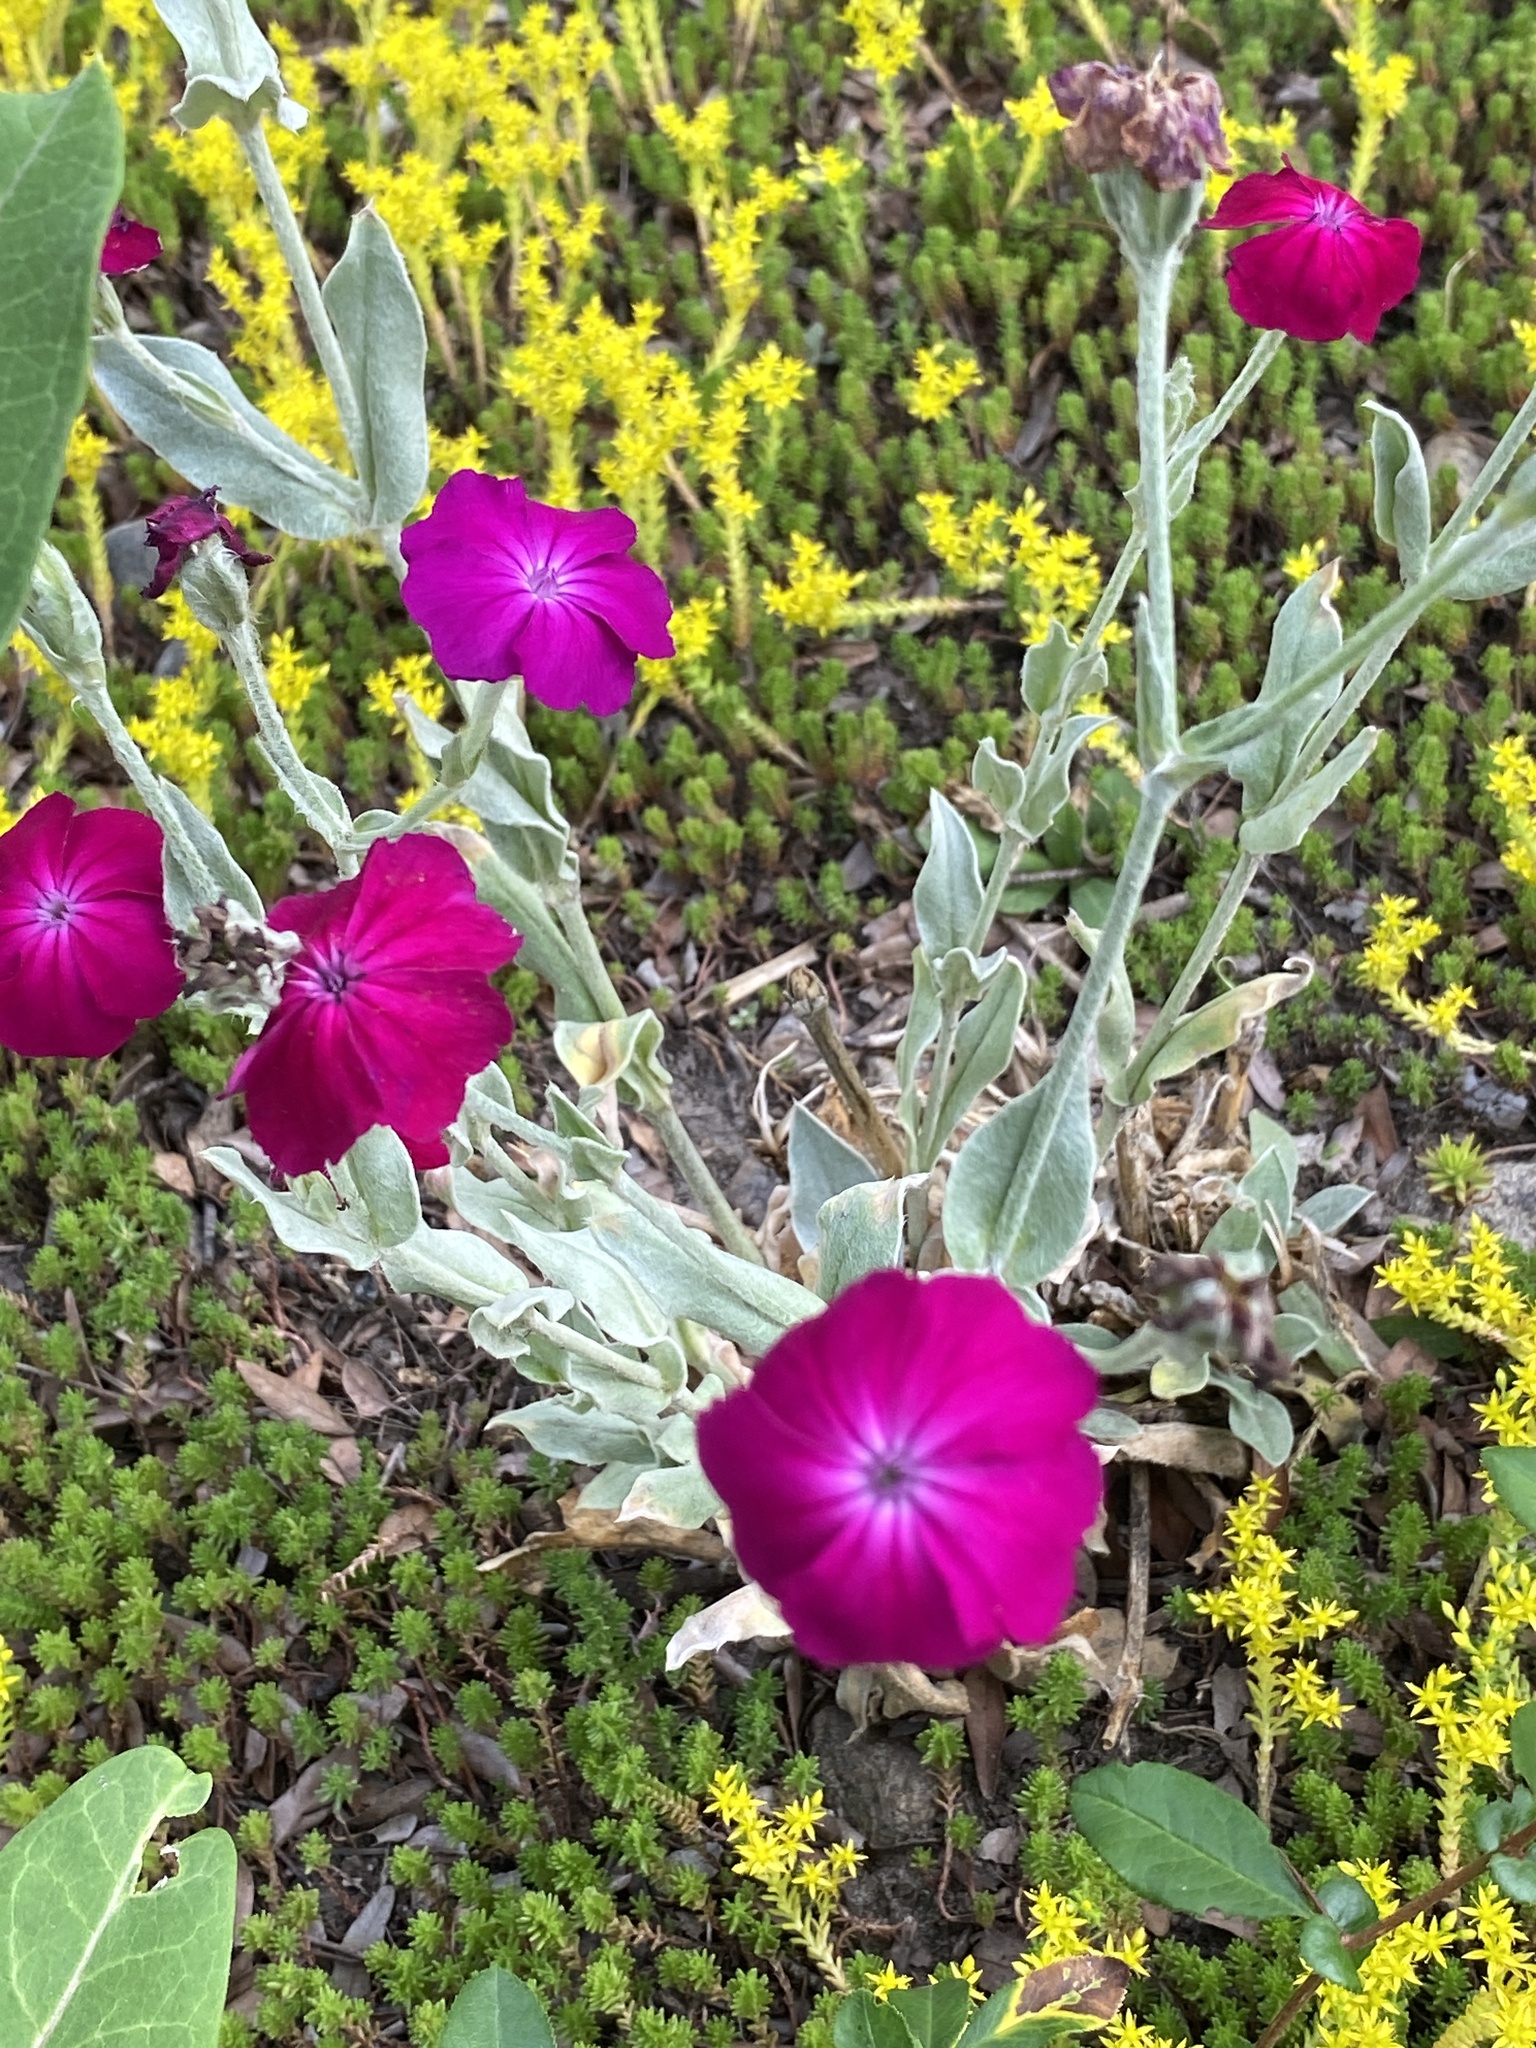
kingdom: Plantae
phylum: Tracheophyta
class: Magnoliopsida
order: Caryophyllales
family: Caryophyllaceae
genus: Silene
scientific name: Silene coronaria
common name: Rose campion
